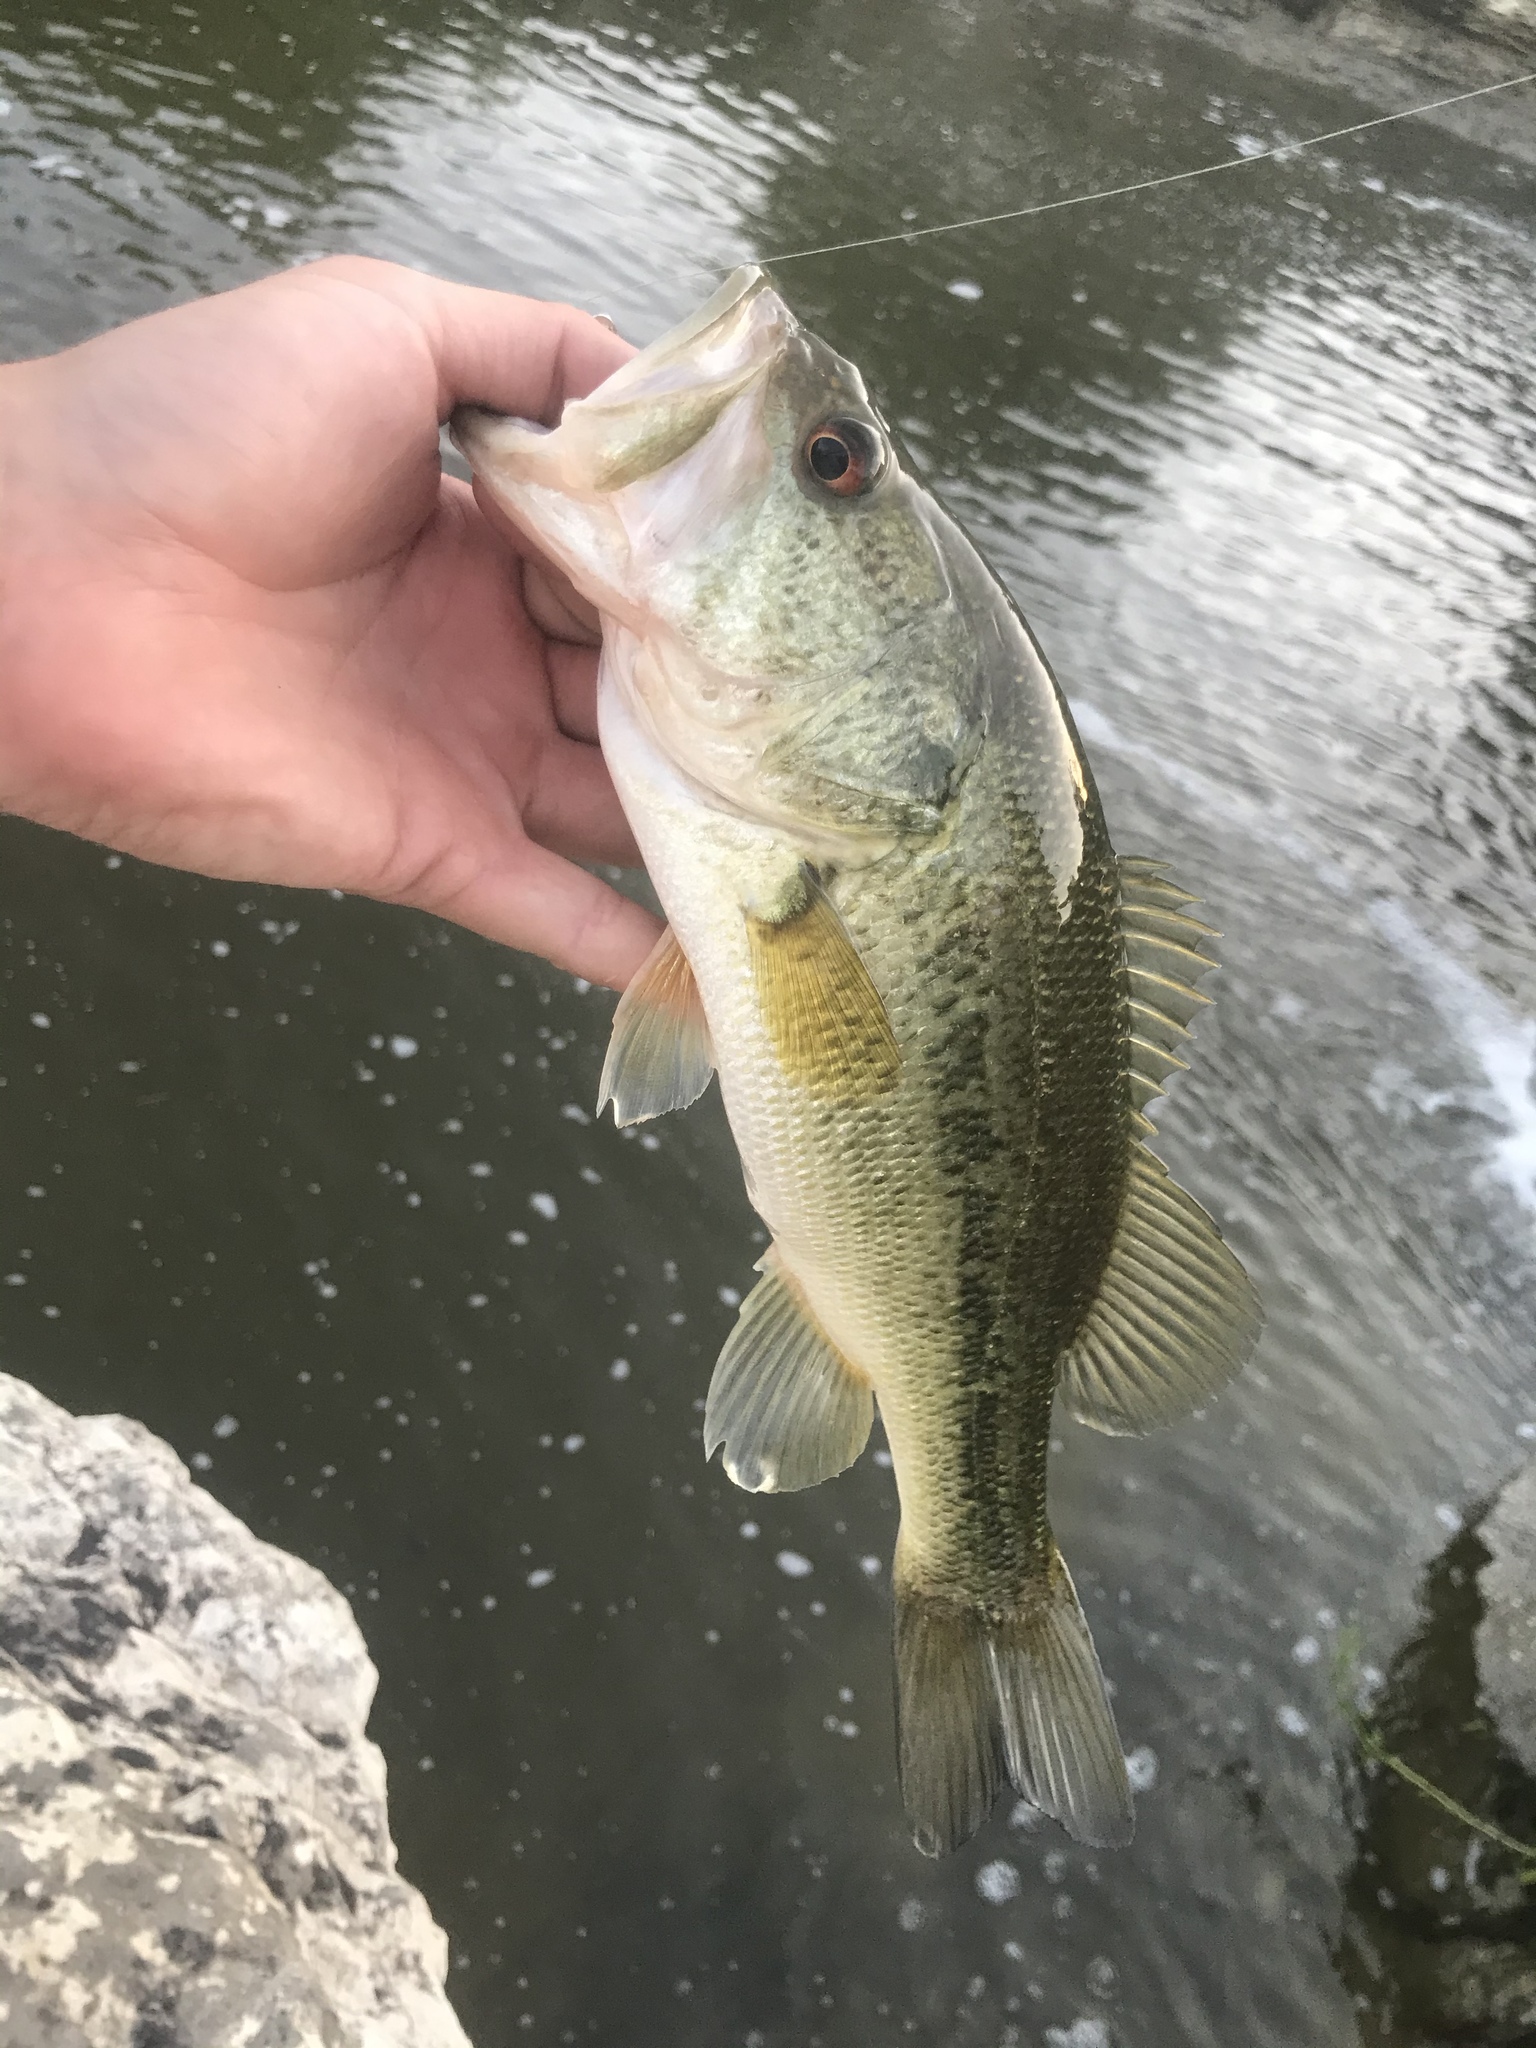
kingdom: Animalia
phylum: Chordata
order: Perciformes
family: Centrarchidae
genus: Micropterus
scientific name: Micropterus
